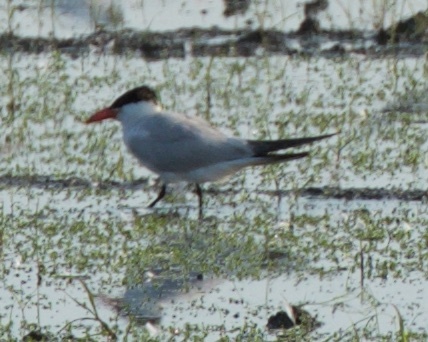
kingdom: Animalia
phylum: Chordata
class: Aves
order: Charadriiformes
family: Laridae
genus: Hydroprogne
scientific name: Hydroprogne caspia
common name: Caspian tern
